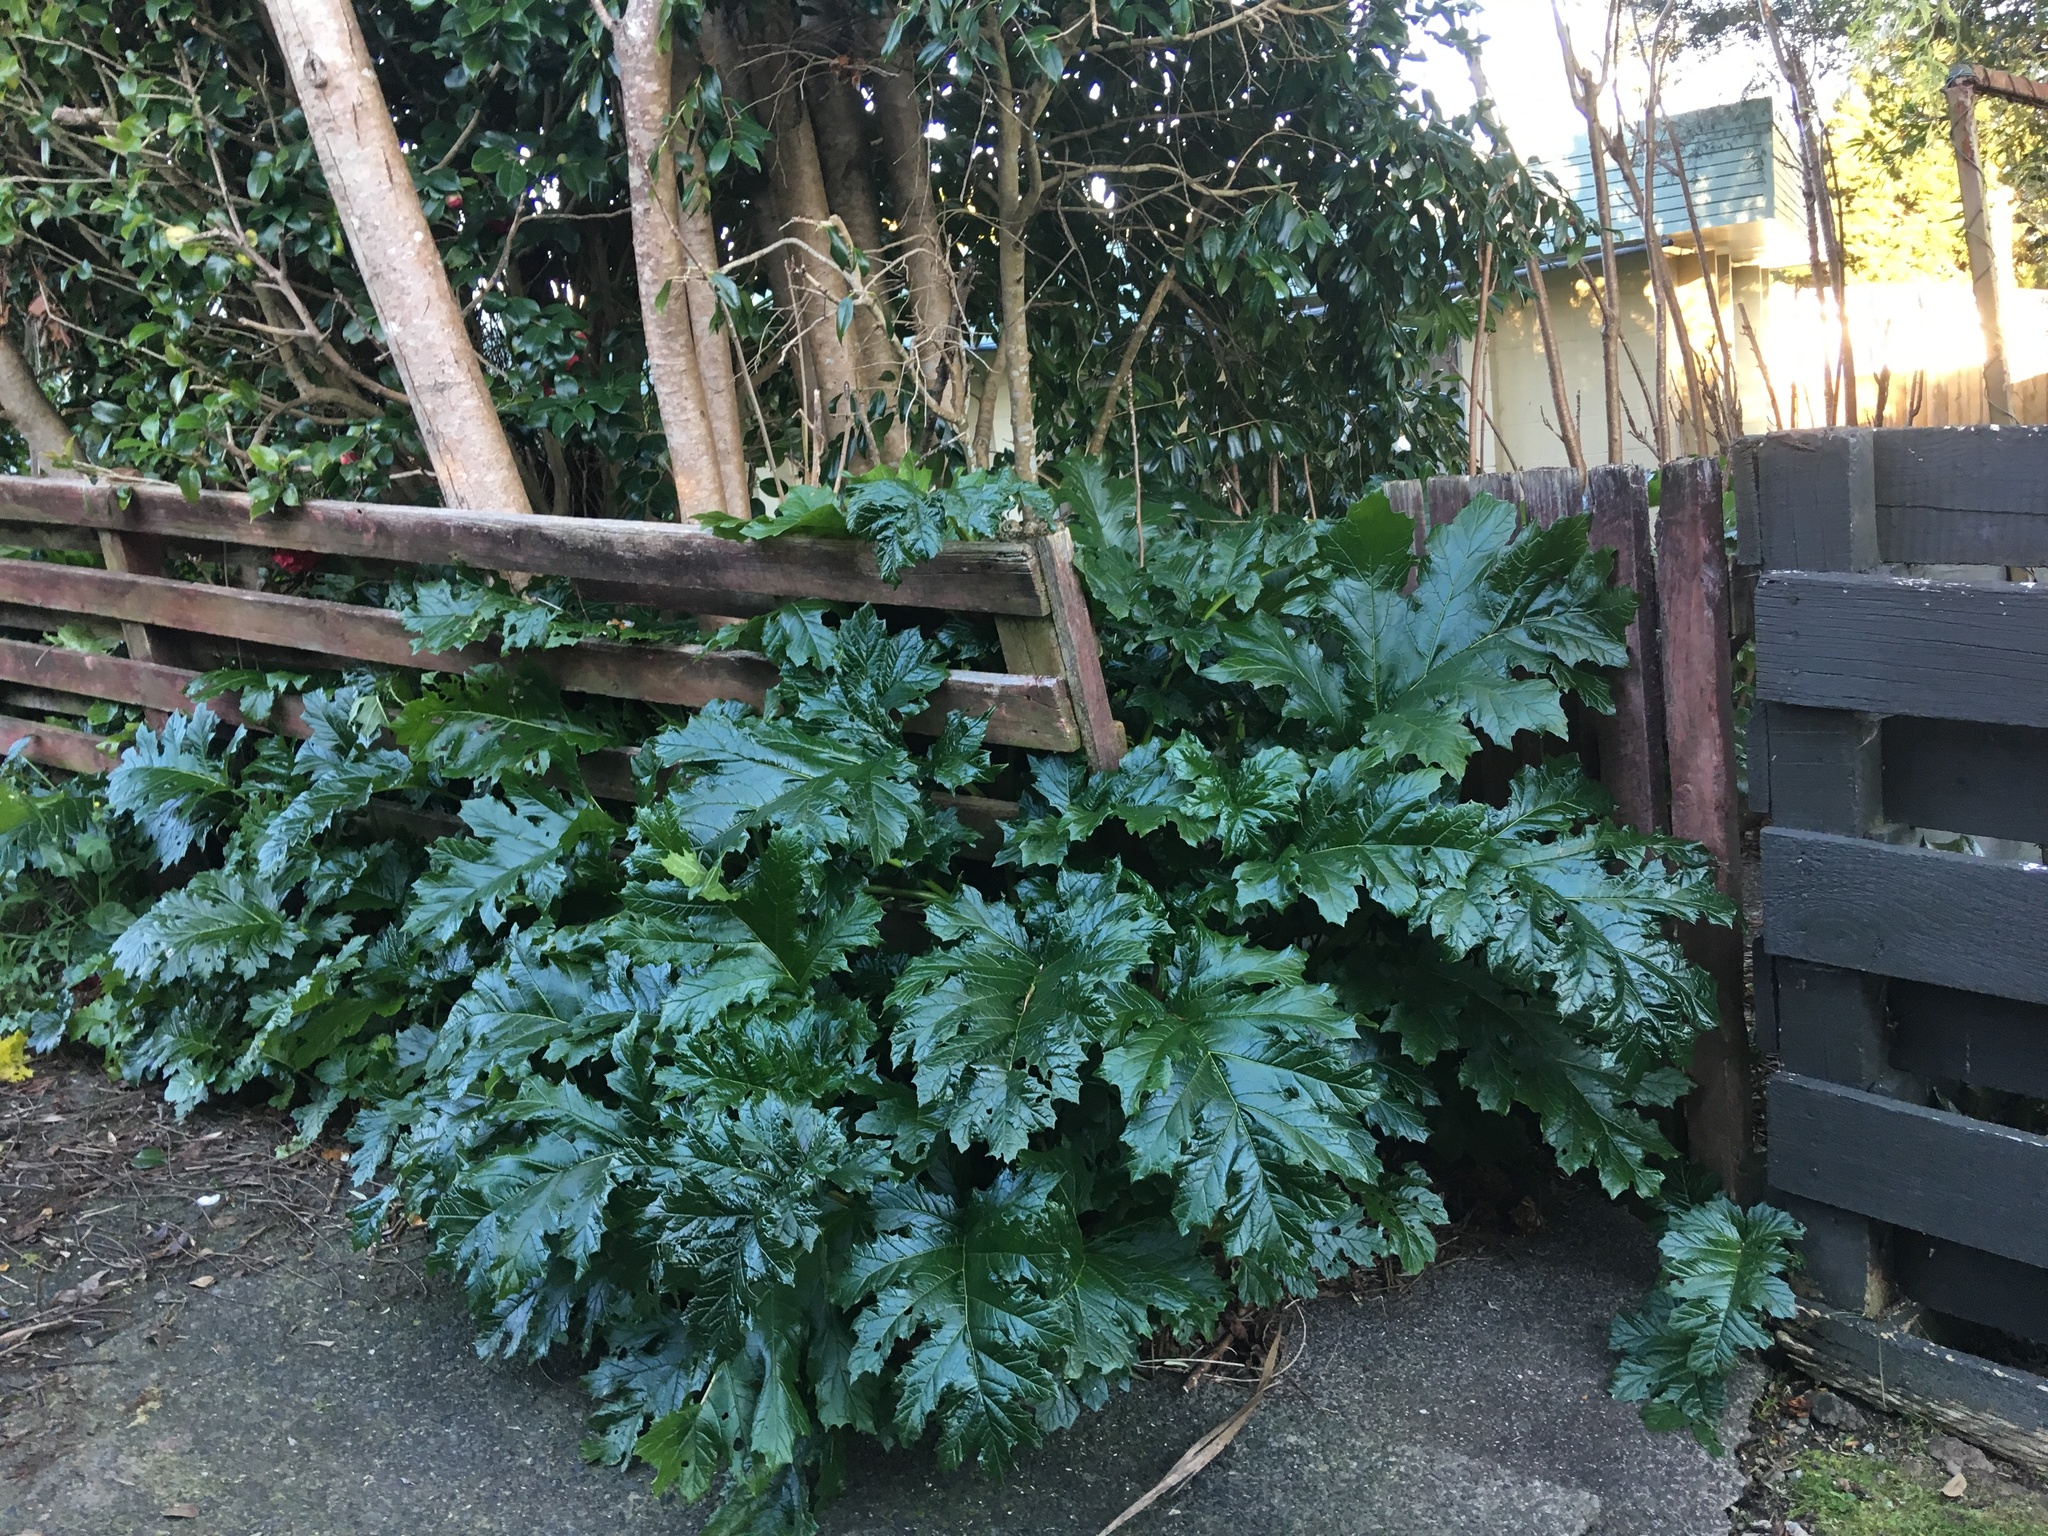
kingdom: Plantae
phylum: Tracheophyta
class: Magnoliopsida
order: Lamiales
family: Acanthaceae
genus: Acanthus
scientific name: Acanthus mollis
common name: Bear's-breech
